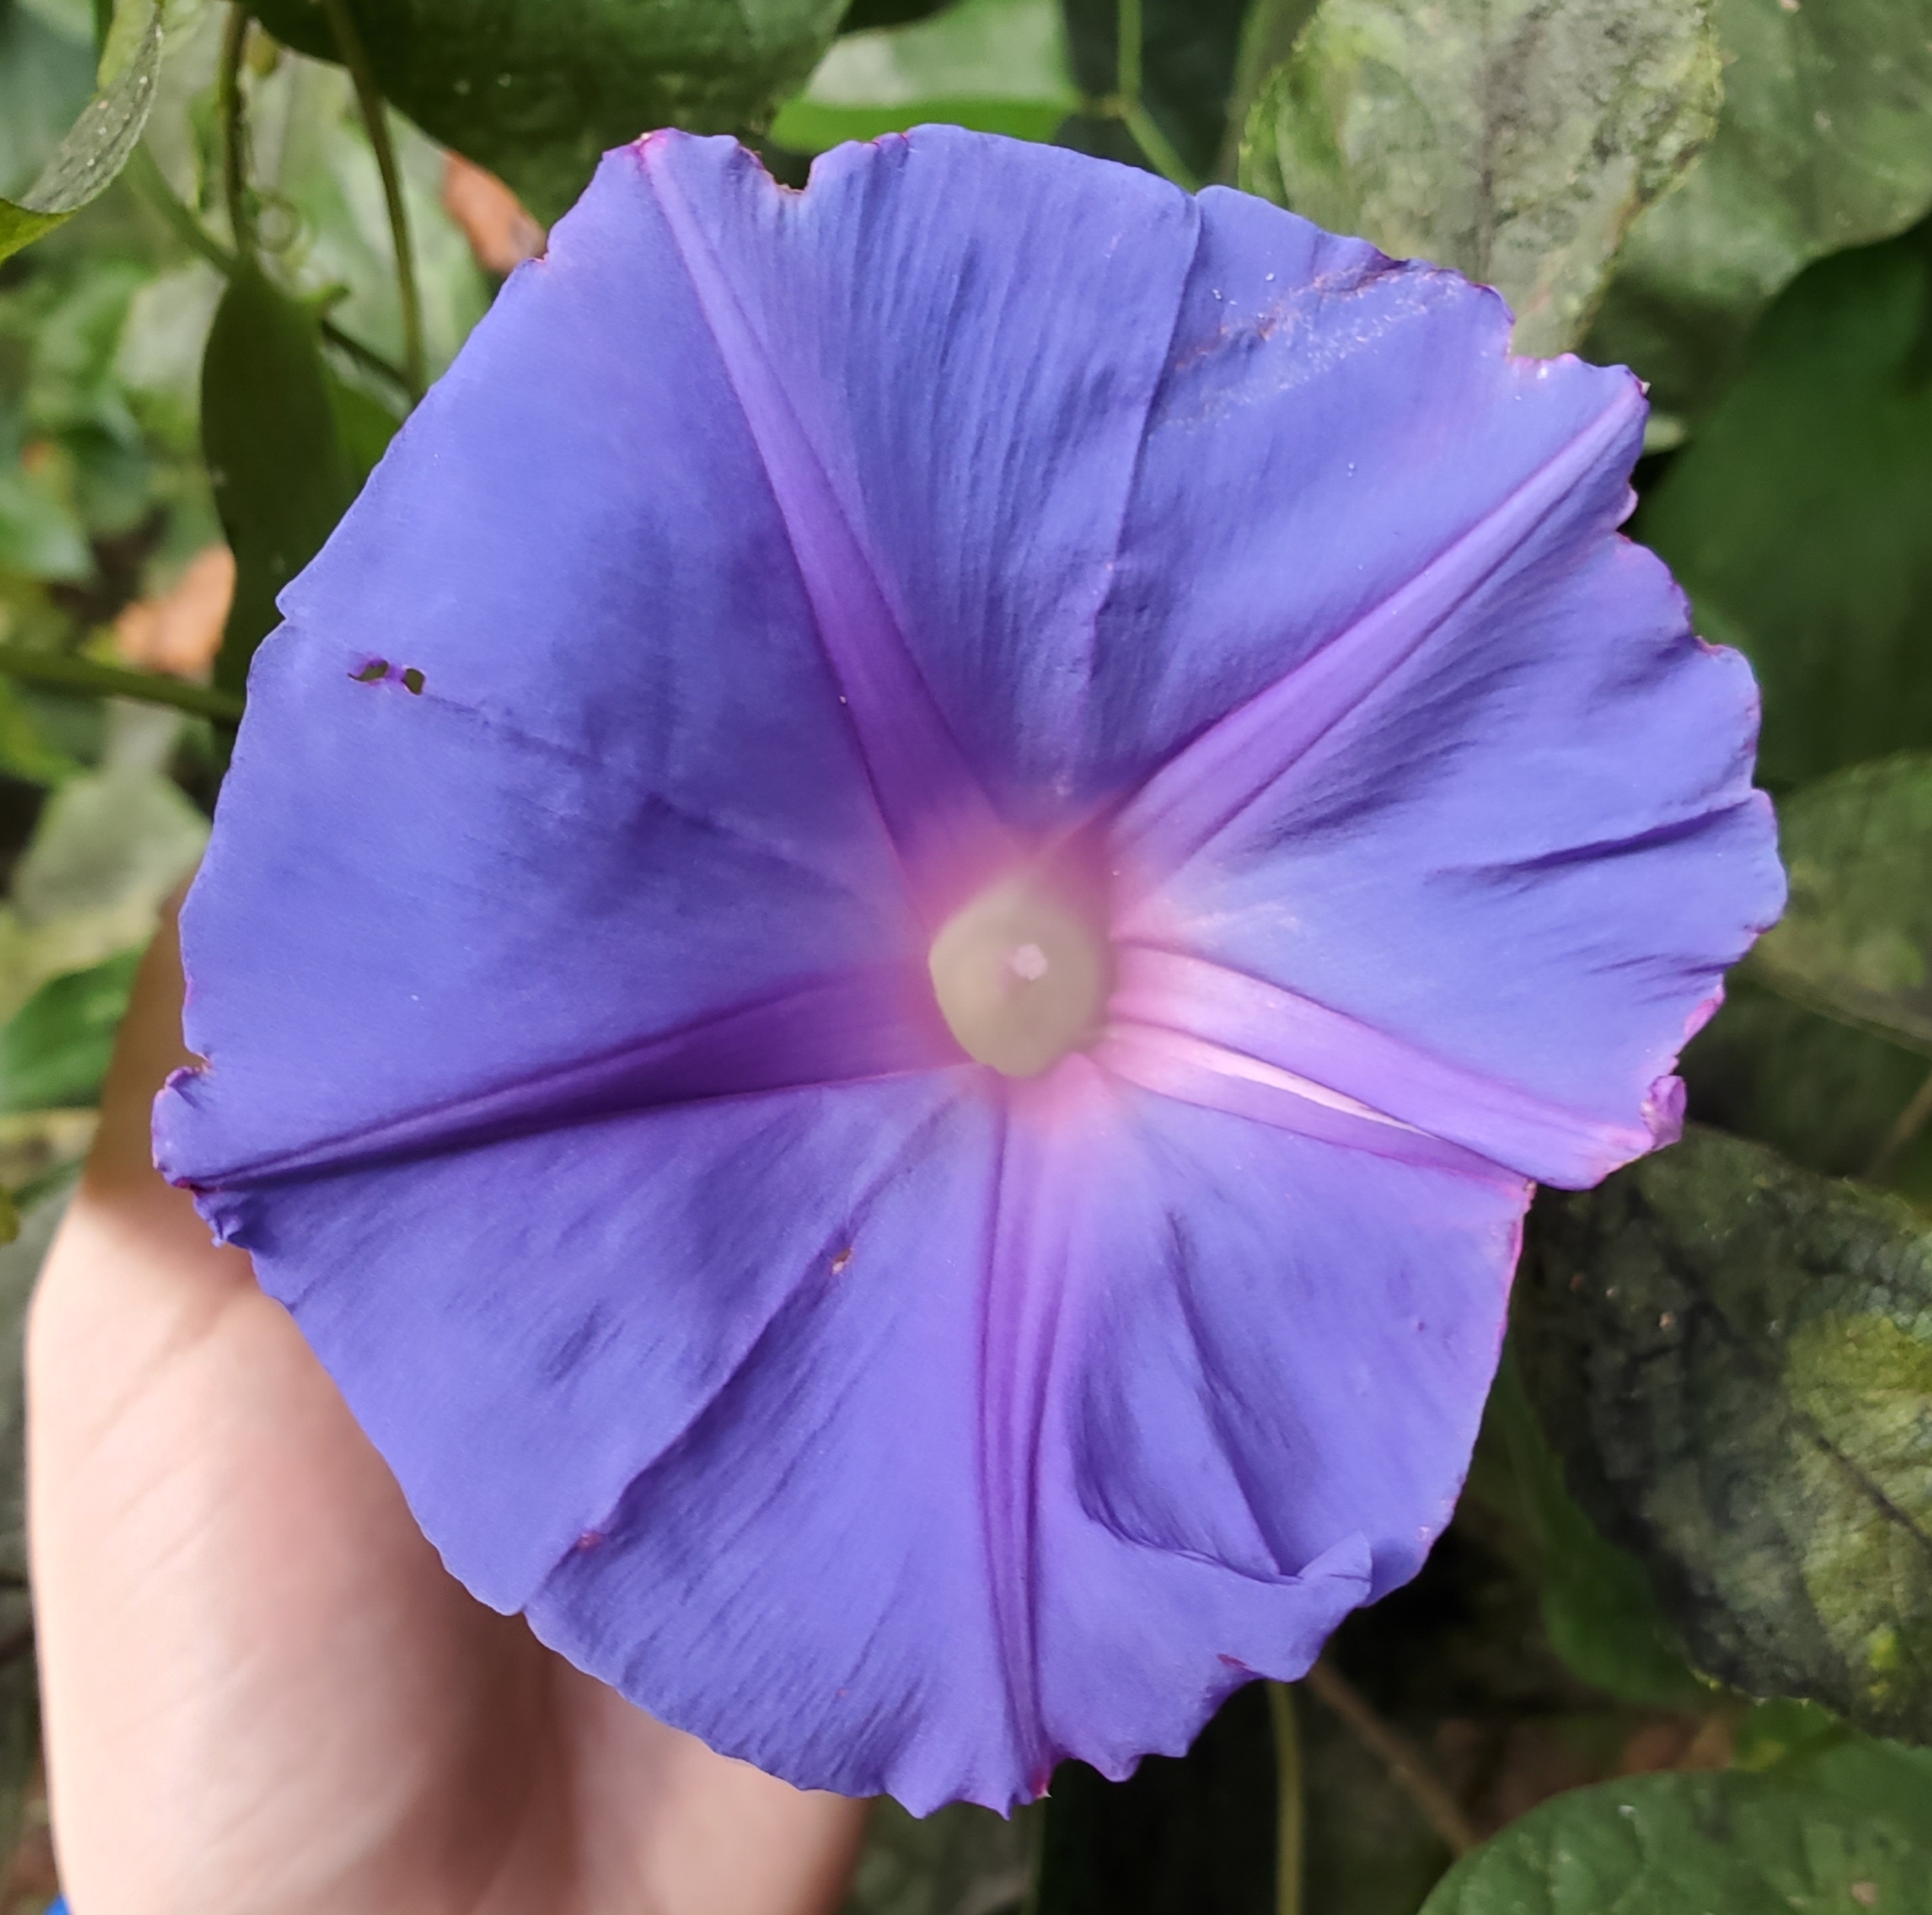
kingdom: Plantae
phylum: Tracheophyta
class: Magnoliopsida
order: Solanales
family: Convolvulaceae
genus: Ipomoea
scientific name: Ipomoea indica
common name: Blue dawnflower
